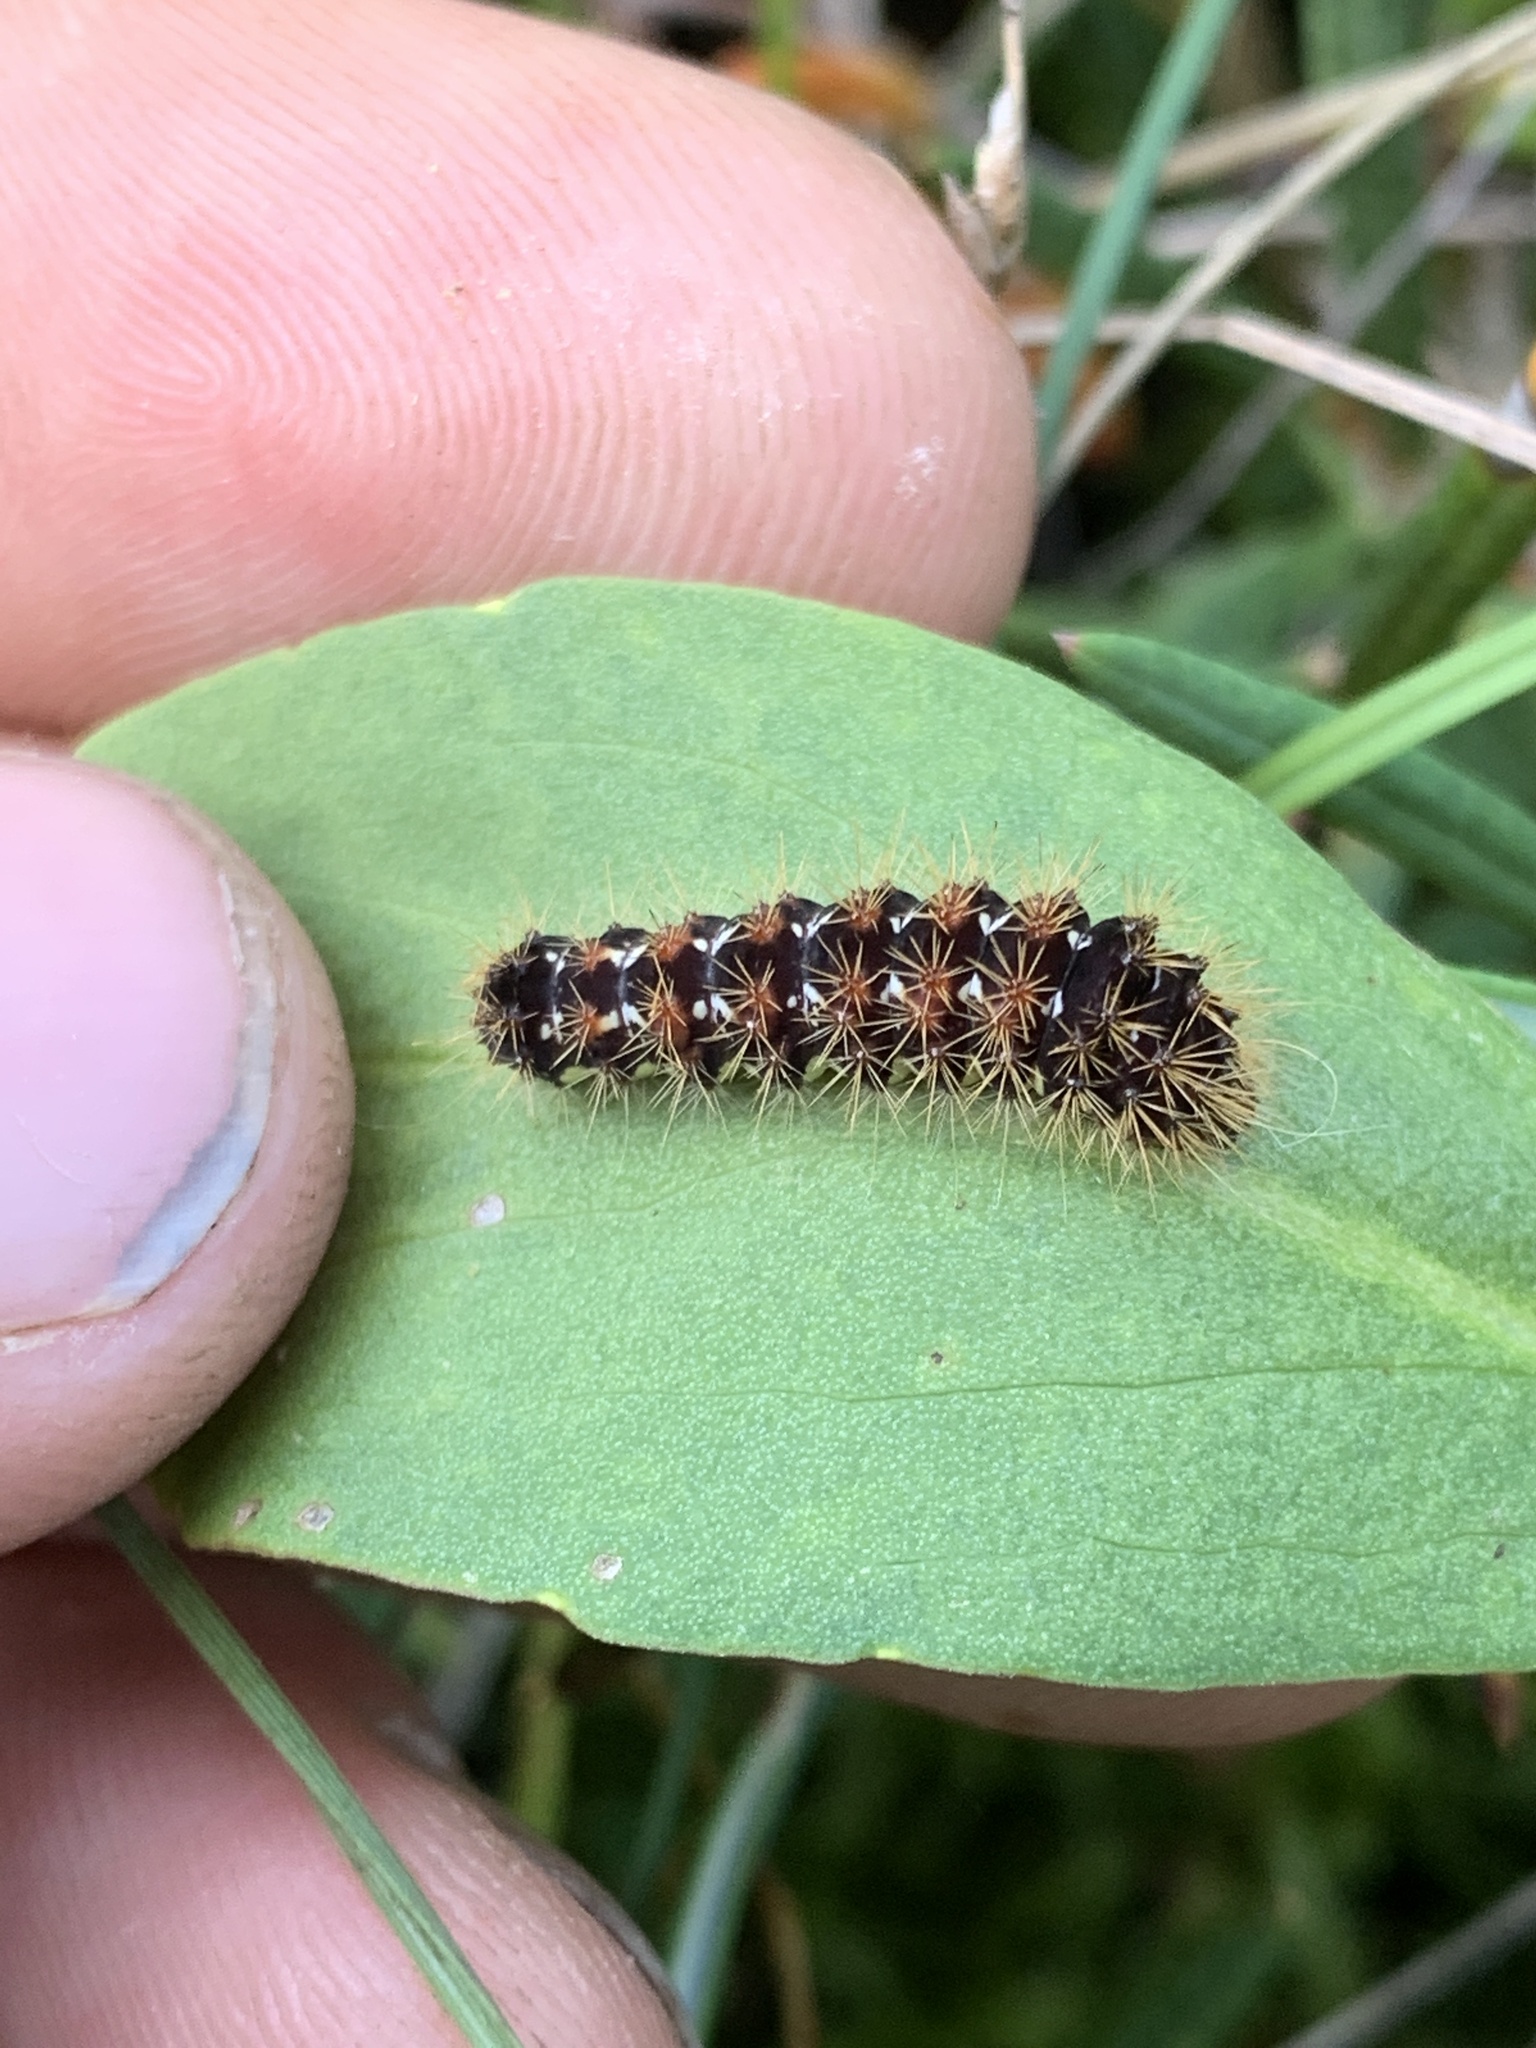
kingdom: Animalia
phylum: Arthropoda
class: Insecta
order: Lepidoptera
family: Noctuidae
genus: Acronicta
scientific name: Acronicta oblinita
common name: Smeared dagger
